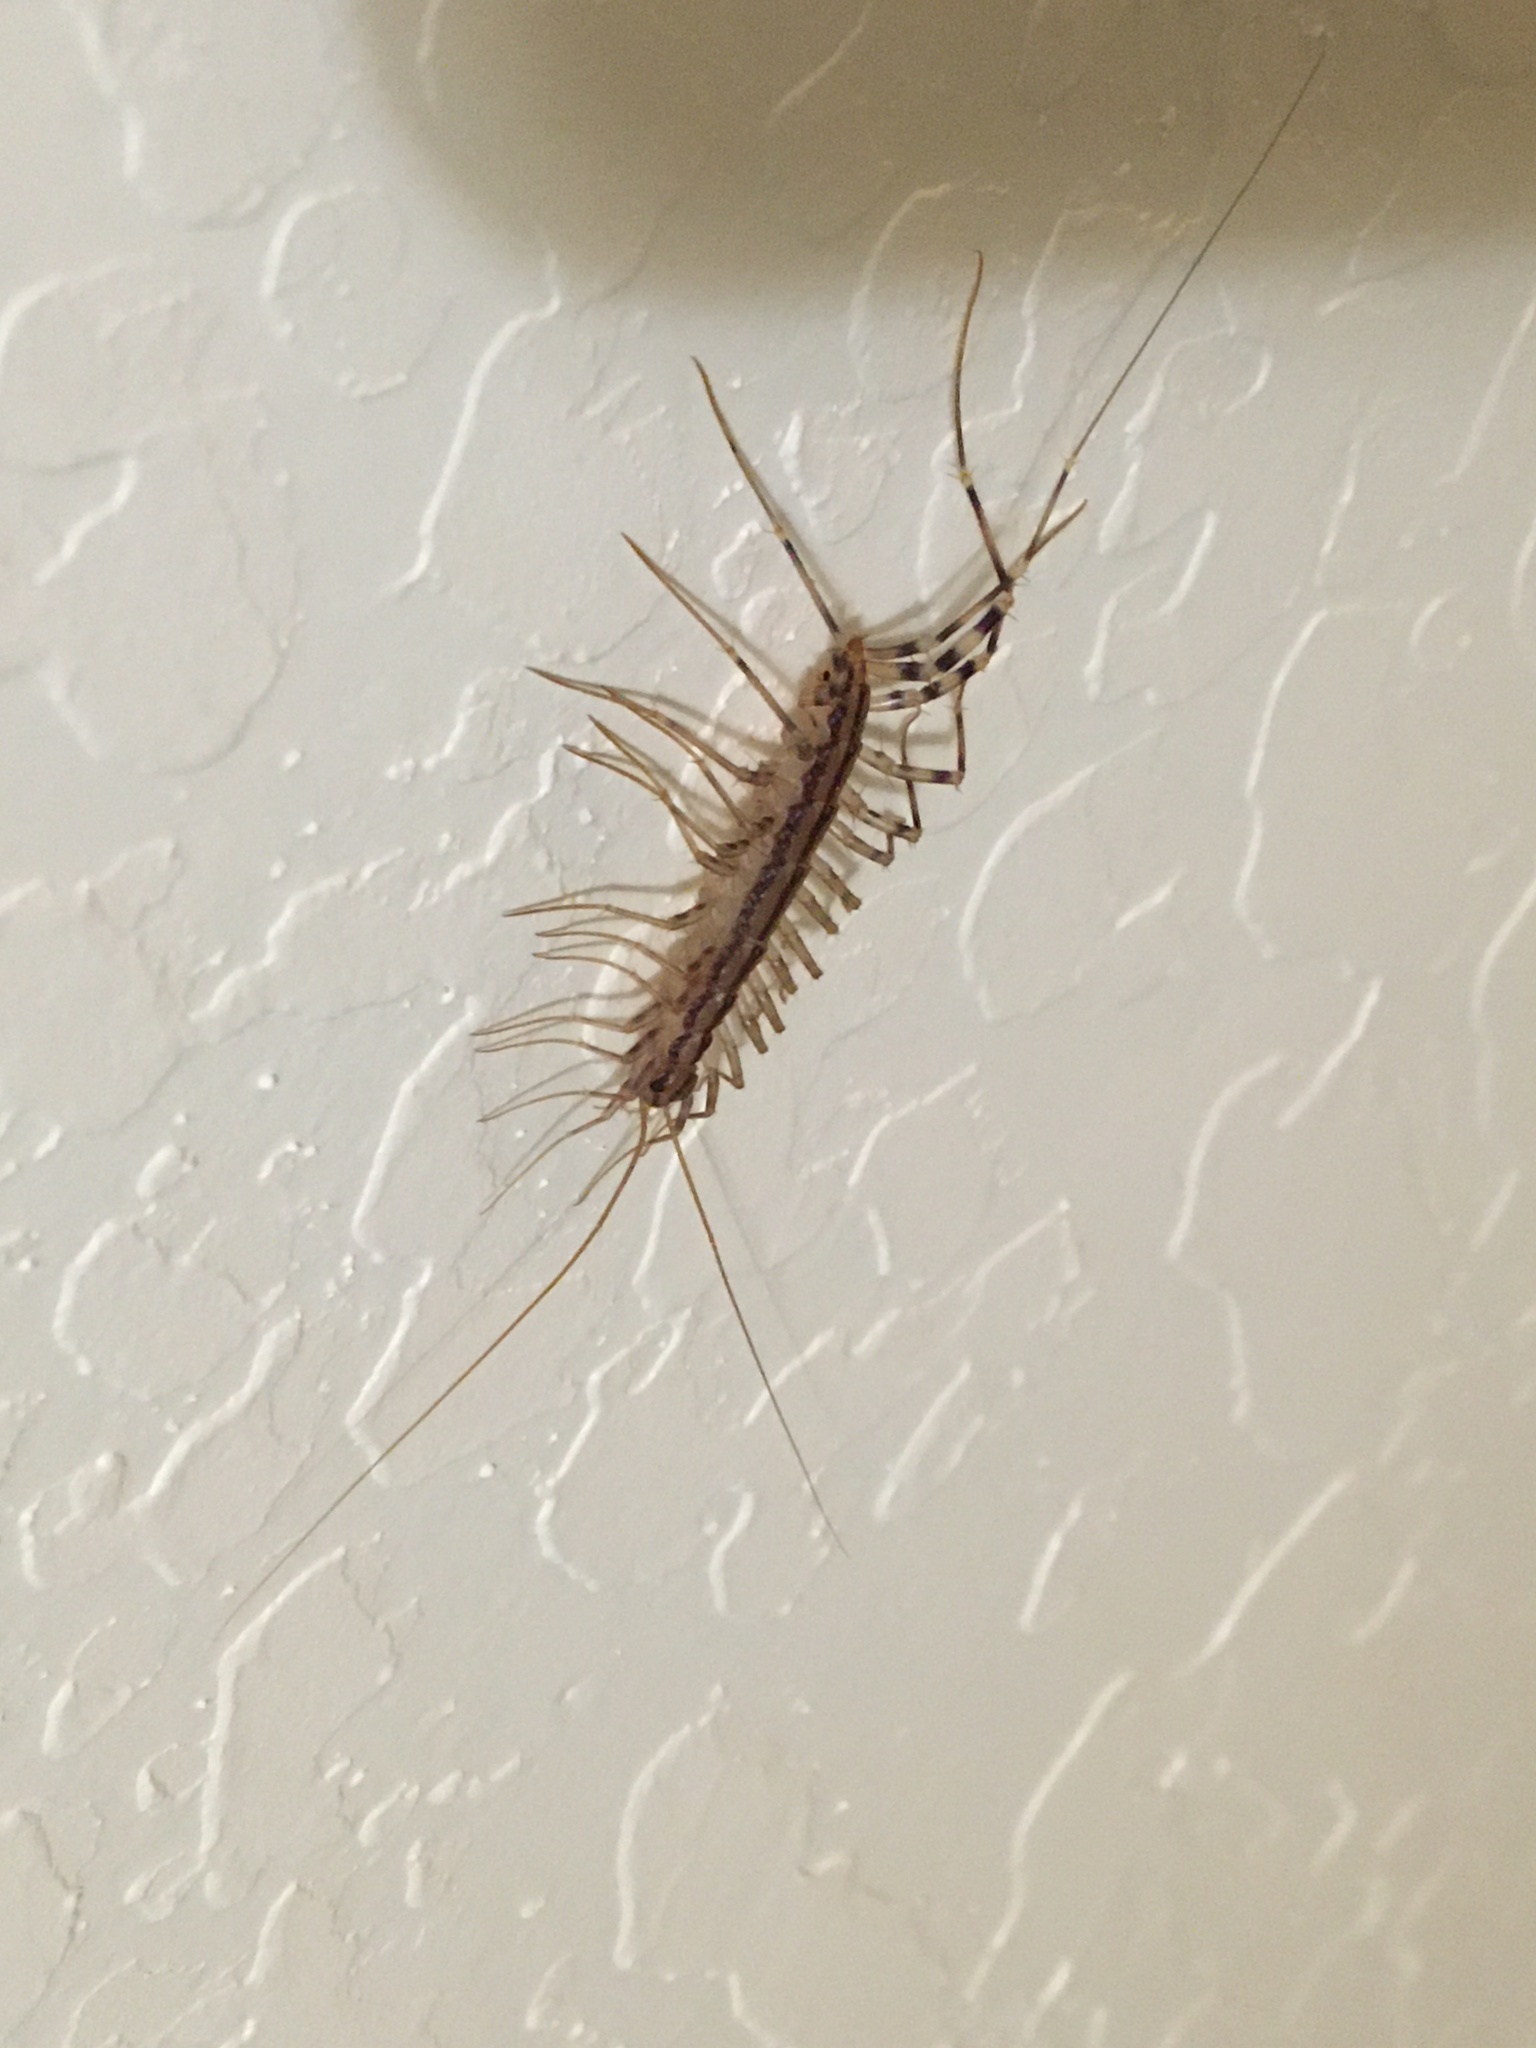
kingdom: Animalia
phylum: Arthropoda
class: Chilopoda
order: Scutigeromorpha
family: Scutigeridae
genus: Scutigera
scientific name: Scutigera coleoptrata
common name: House centipede
